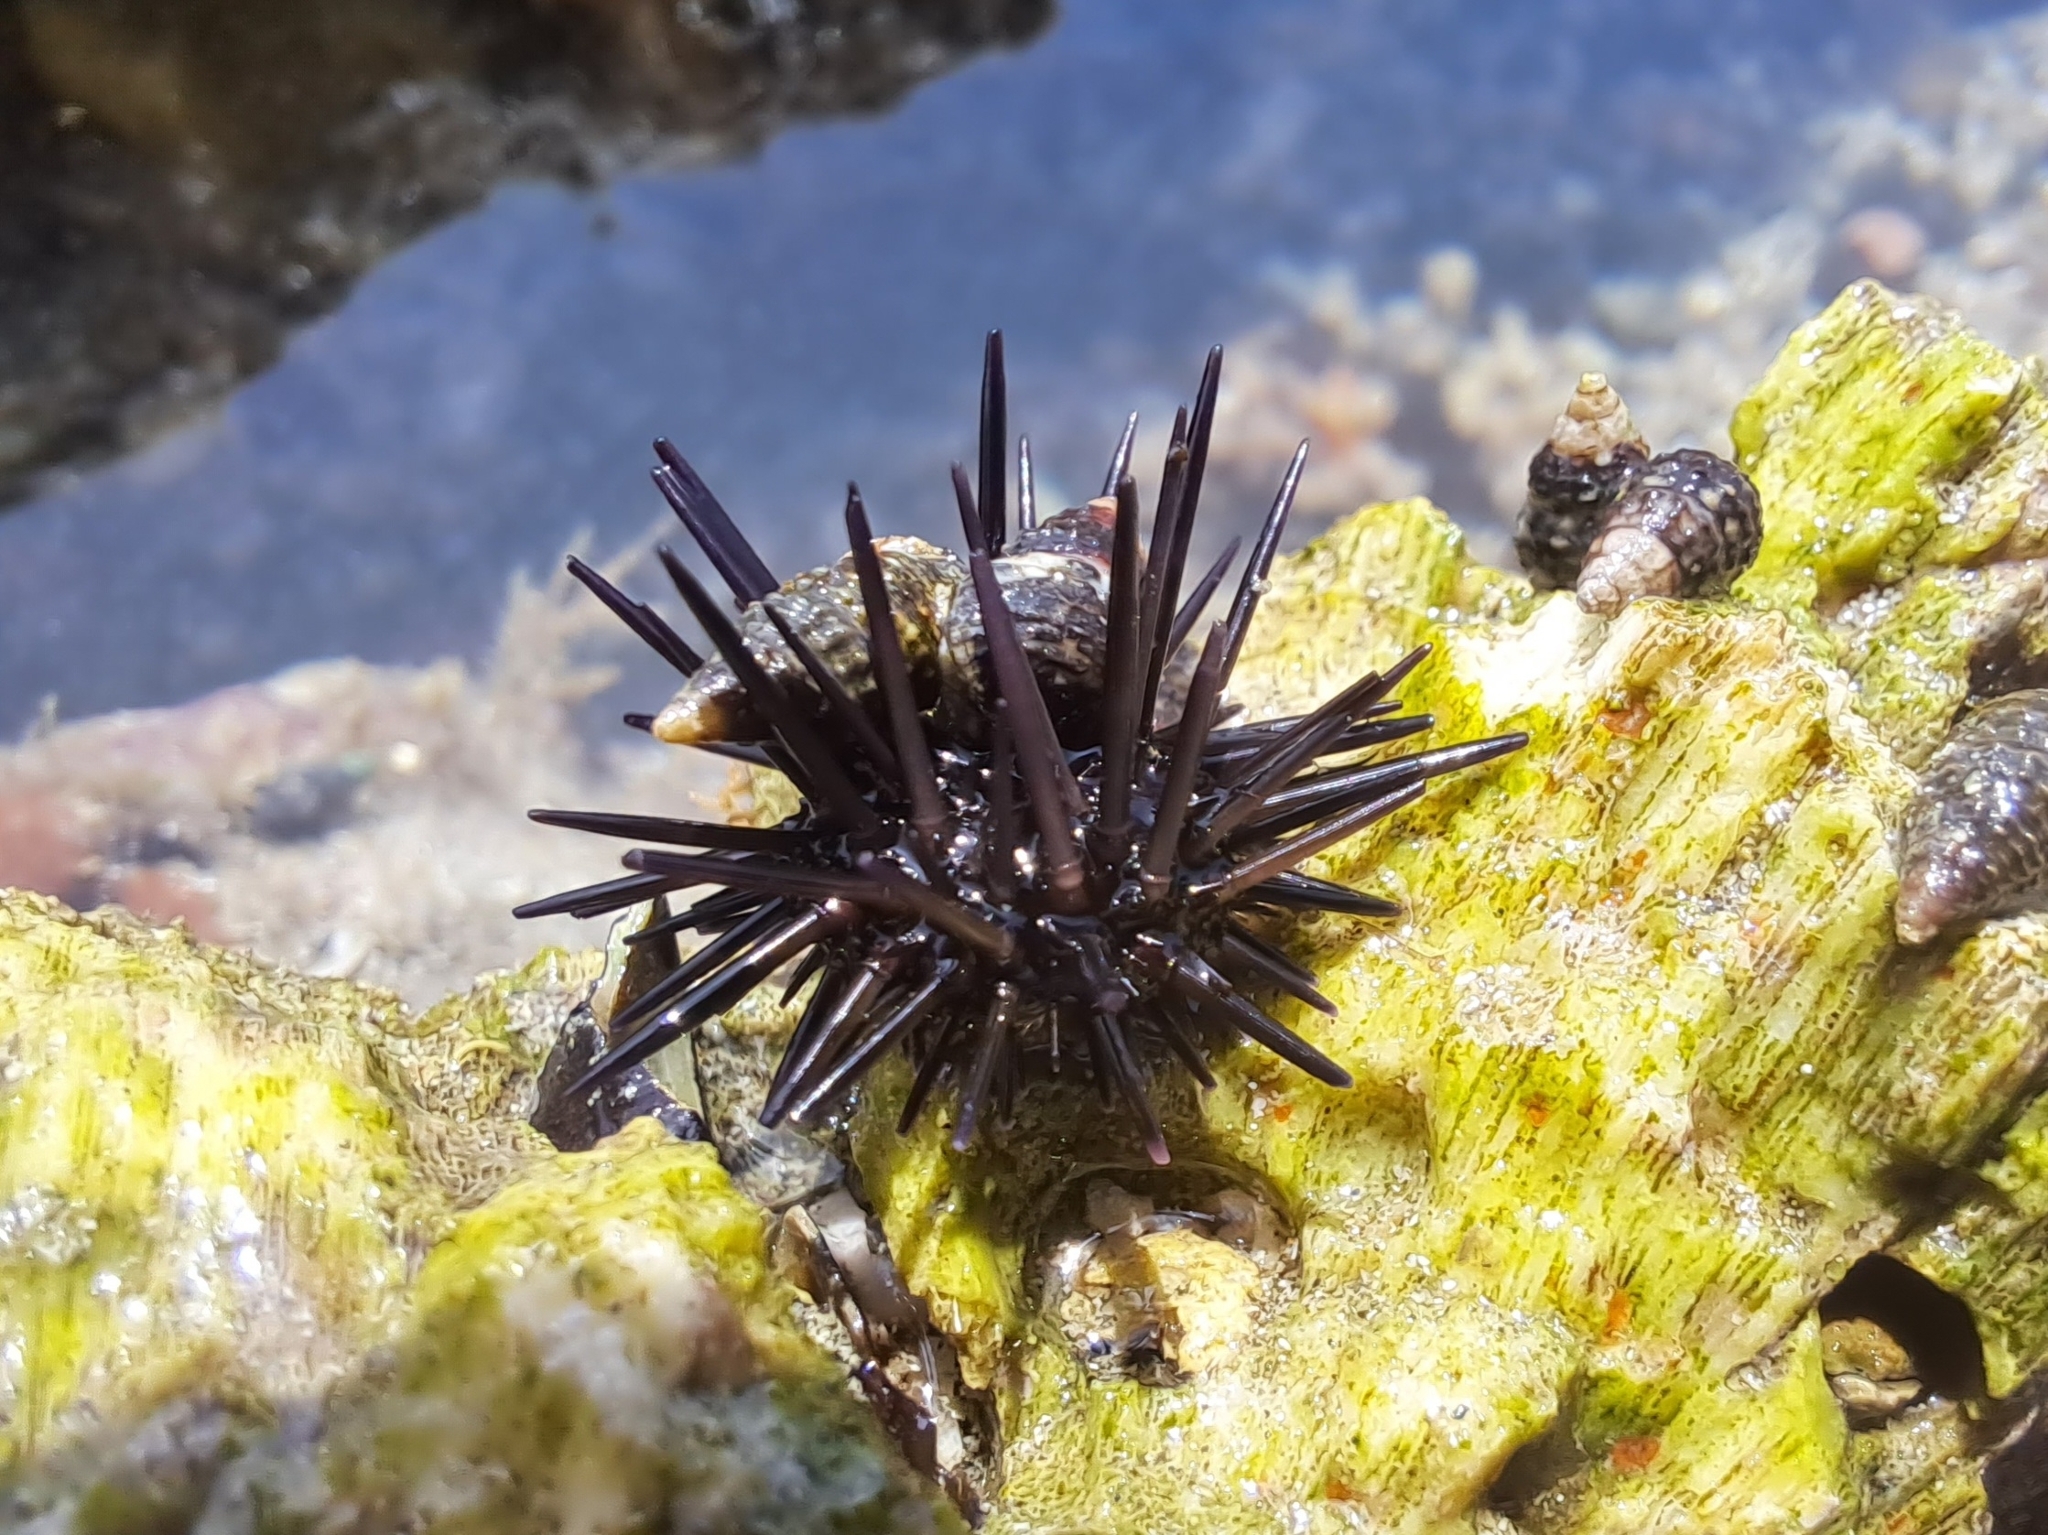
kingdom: Animalia
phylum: Echinodermata
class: Echinoidea
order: Camarodonta
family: Echinometridae
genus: Echinometra
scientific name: Echinometra vanbrunti
